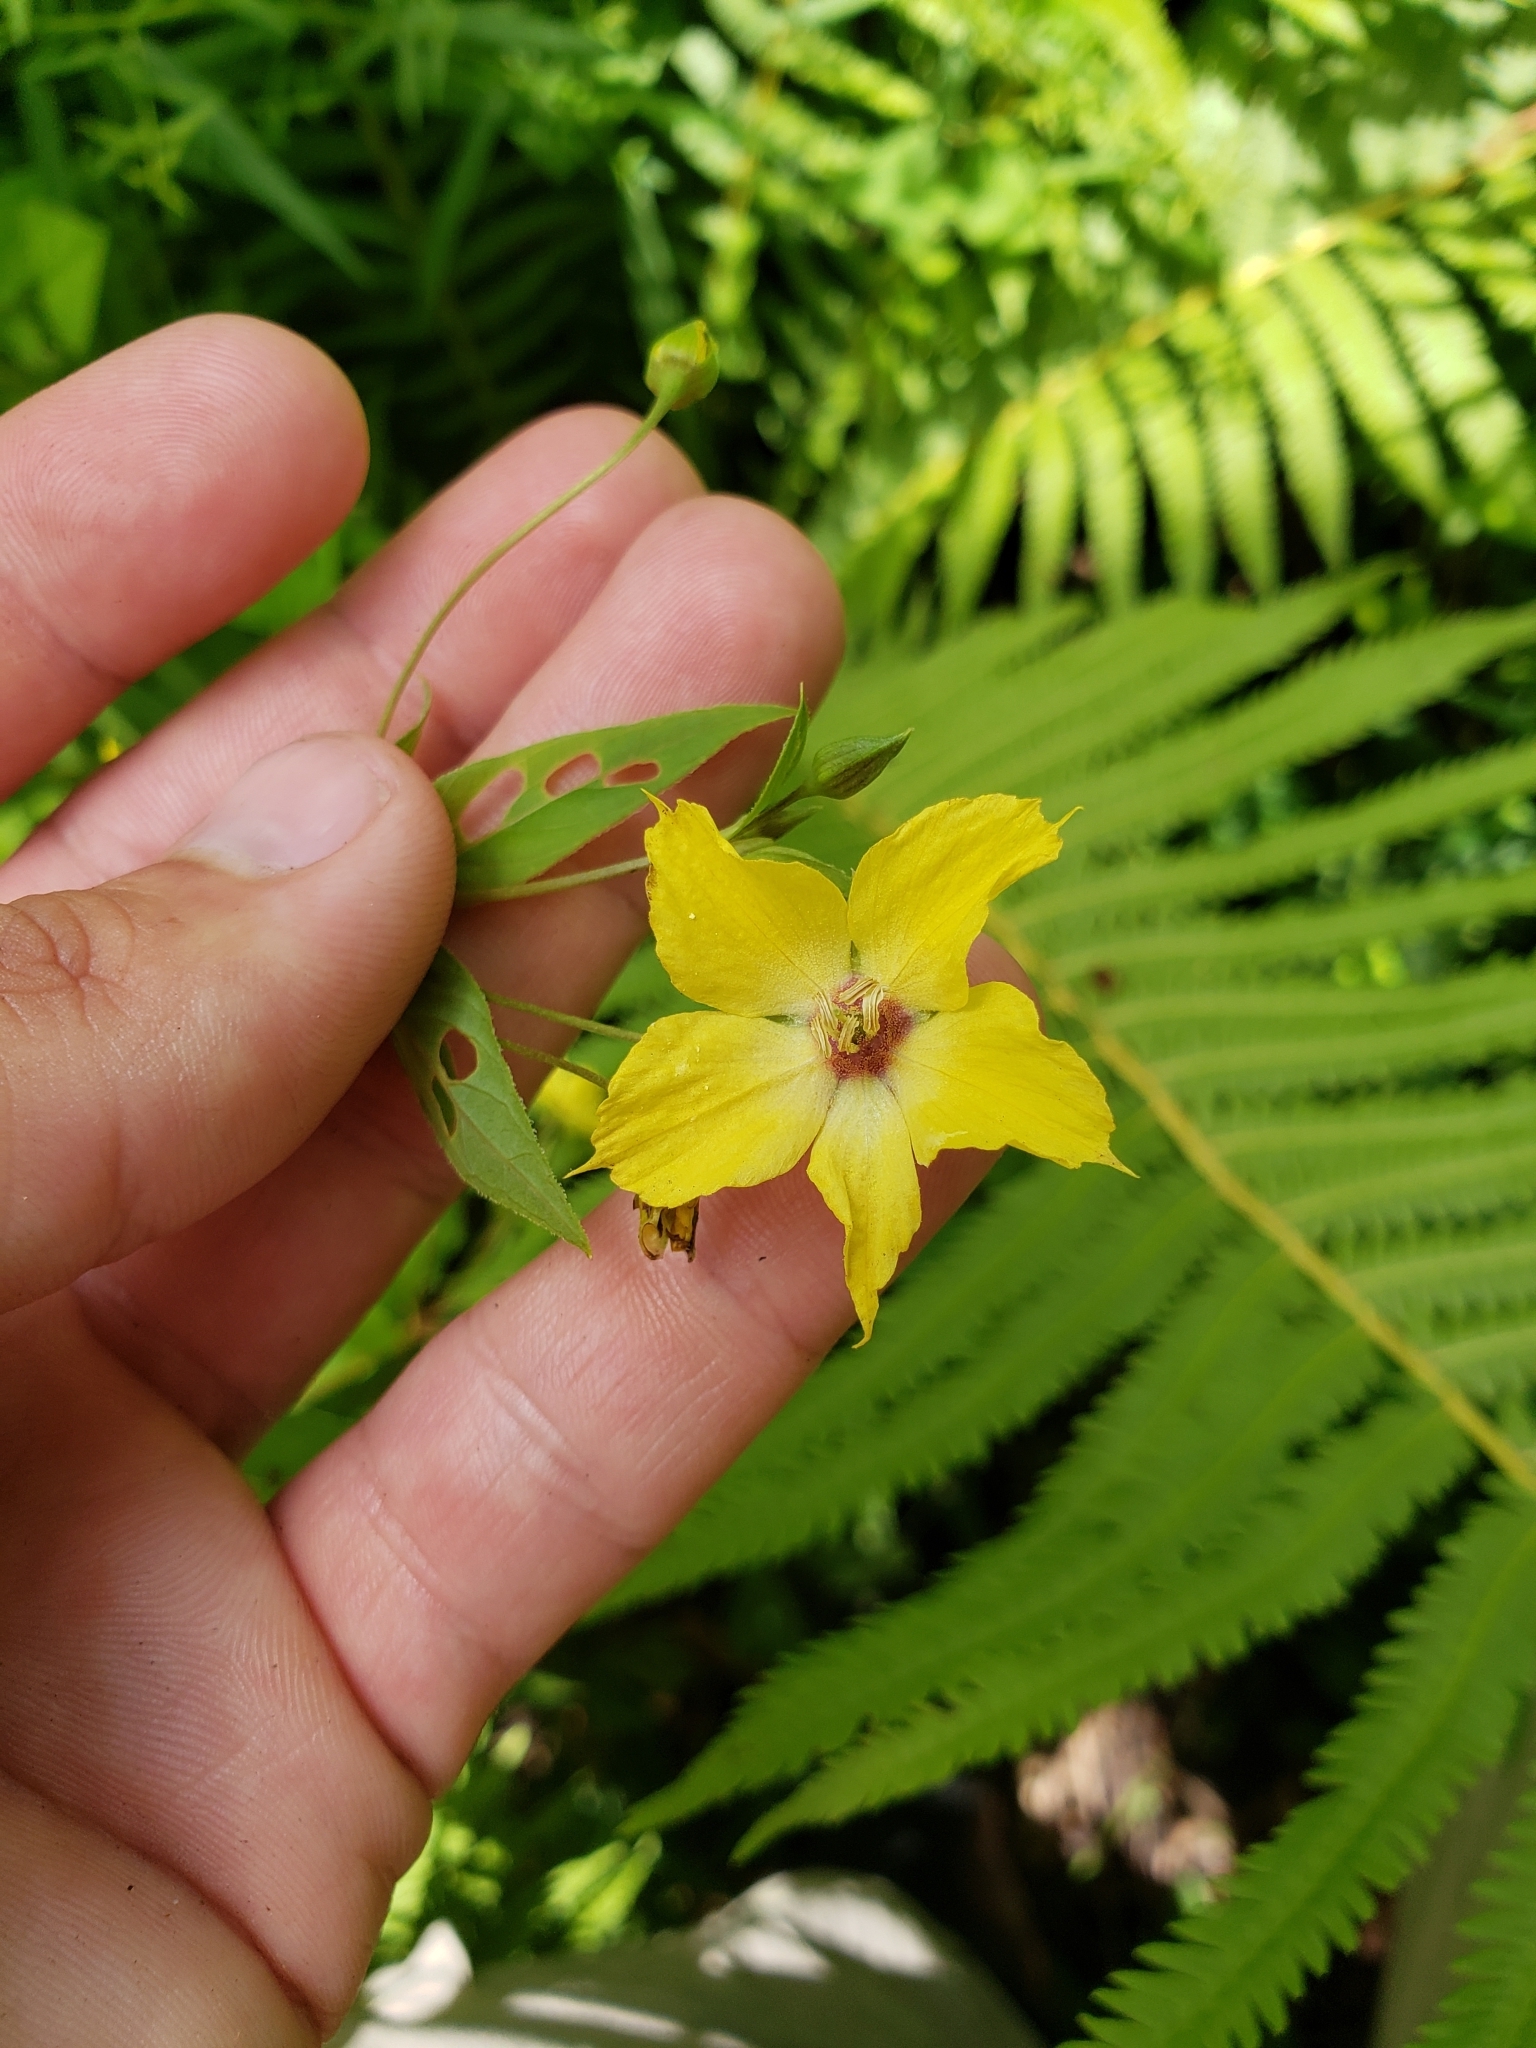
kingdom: Plantae
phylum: Tracheophyta
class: Magnoliopsida
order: Ericales
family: Primulaceae
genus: Lysimachia
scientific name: Lysimachia ciliata
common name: Fringed loosestrife
